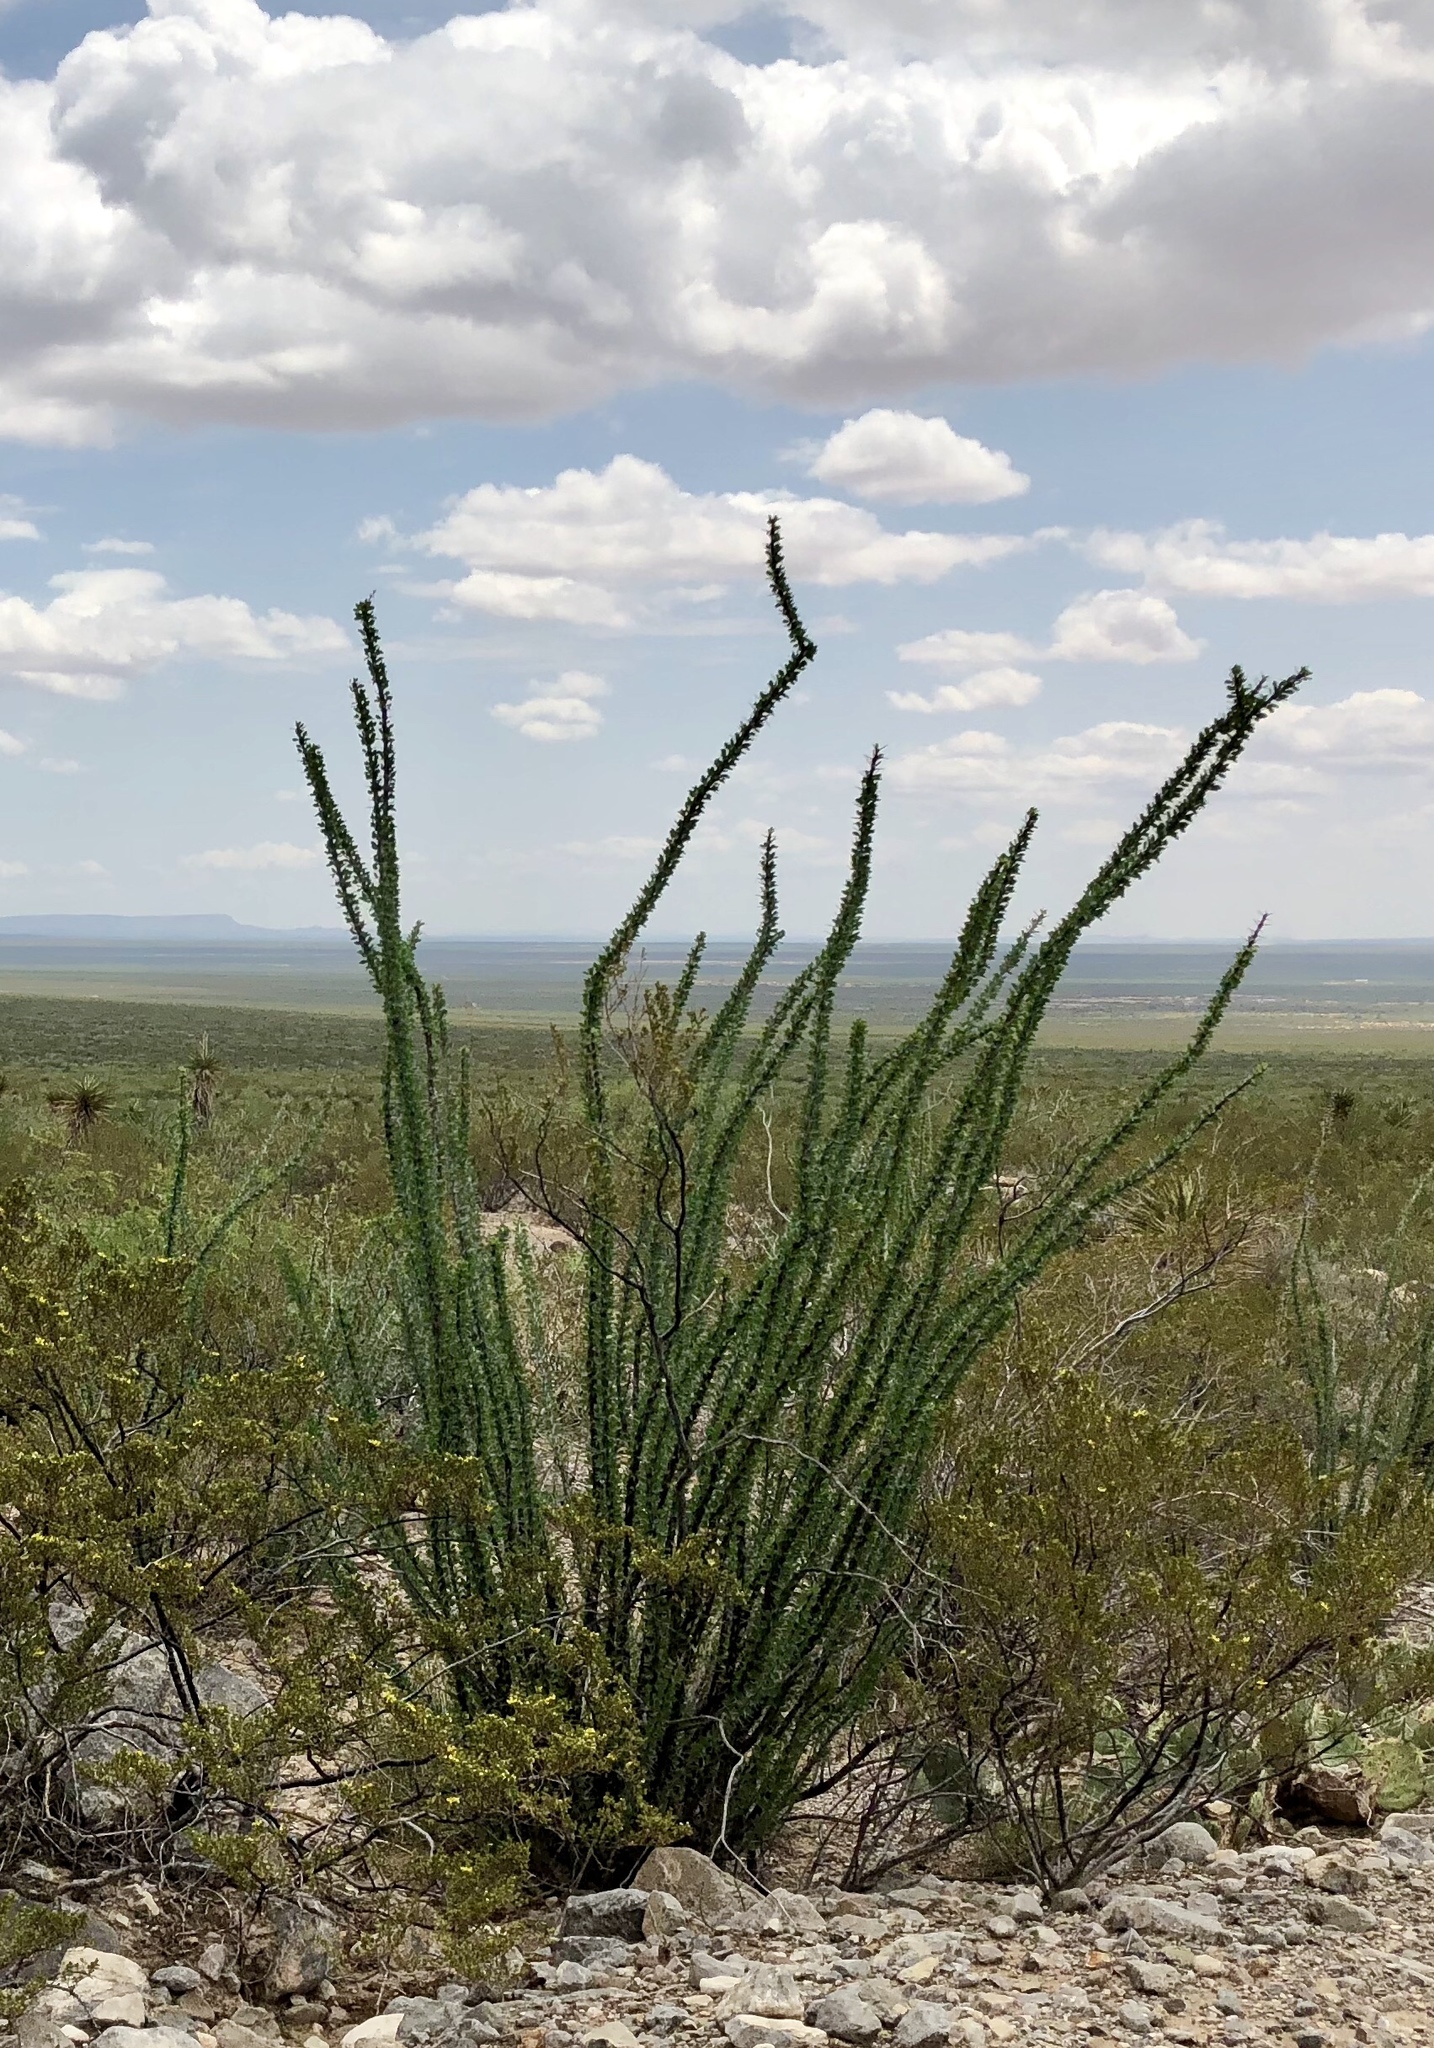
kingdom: Plantae
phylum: Tracheophyta
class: Magnoliopsida
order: Ericales
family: Fouquieriaceae
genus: Fouquieria
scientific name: Fouquieria splendens
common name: Vine-cactus
